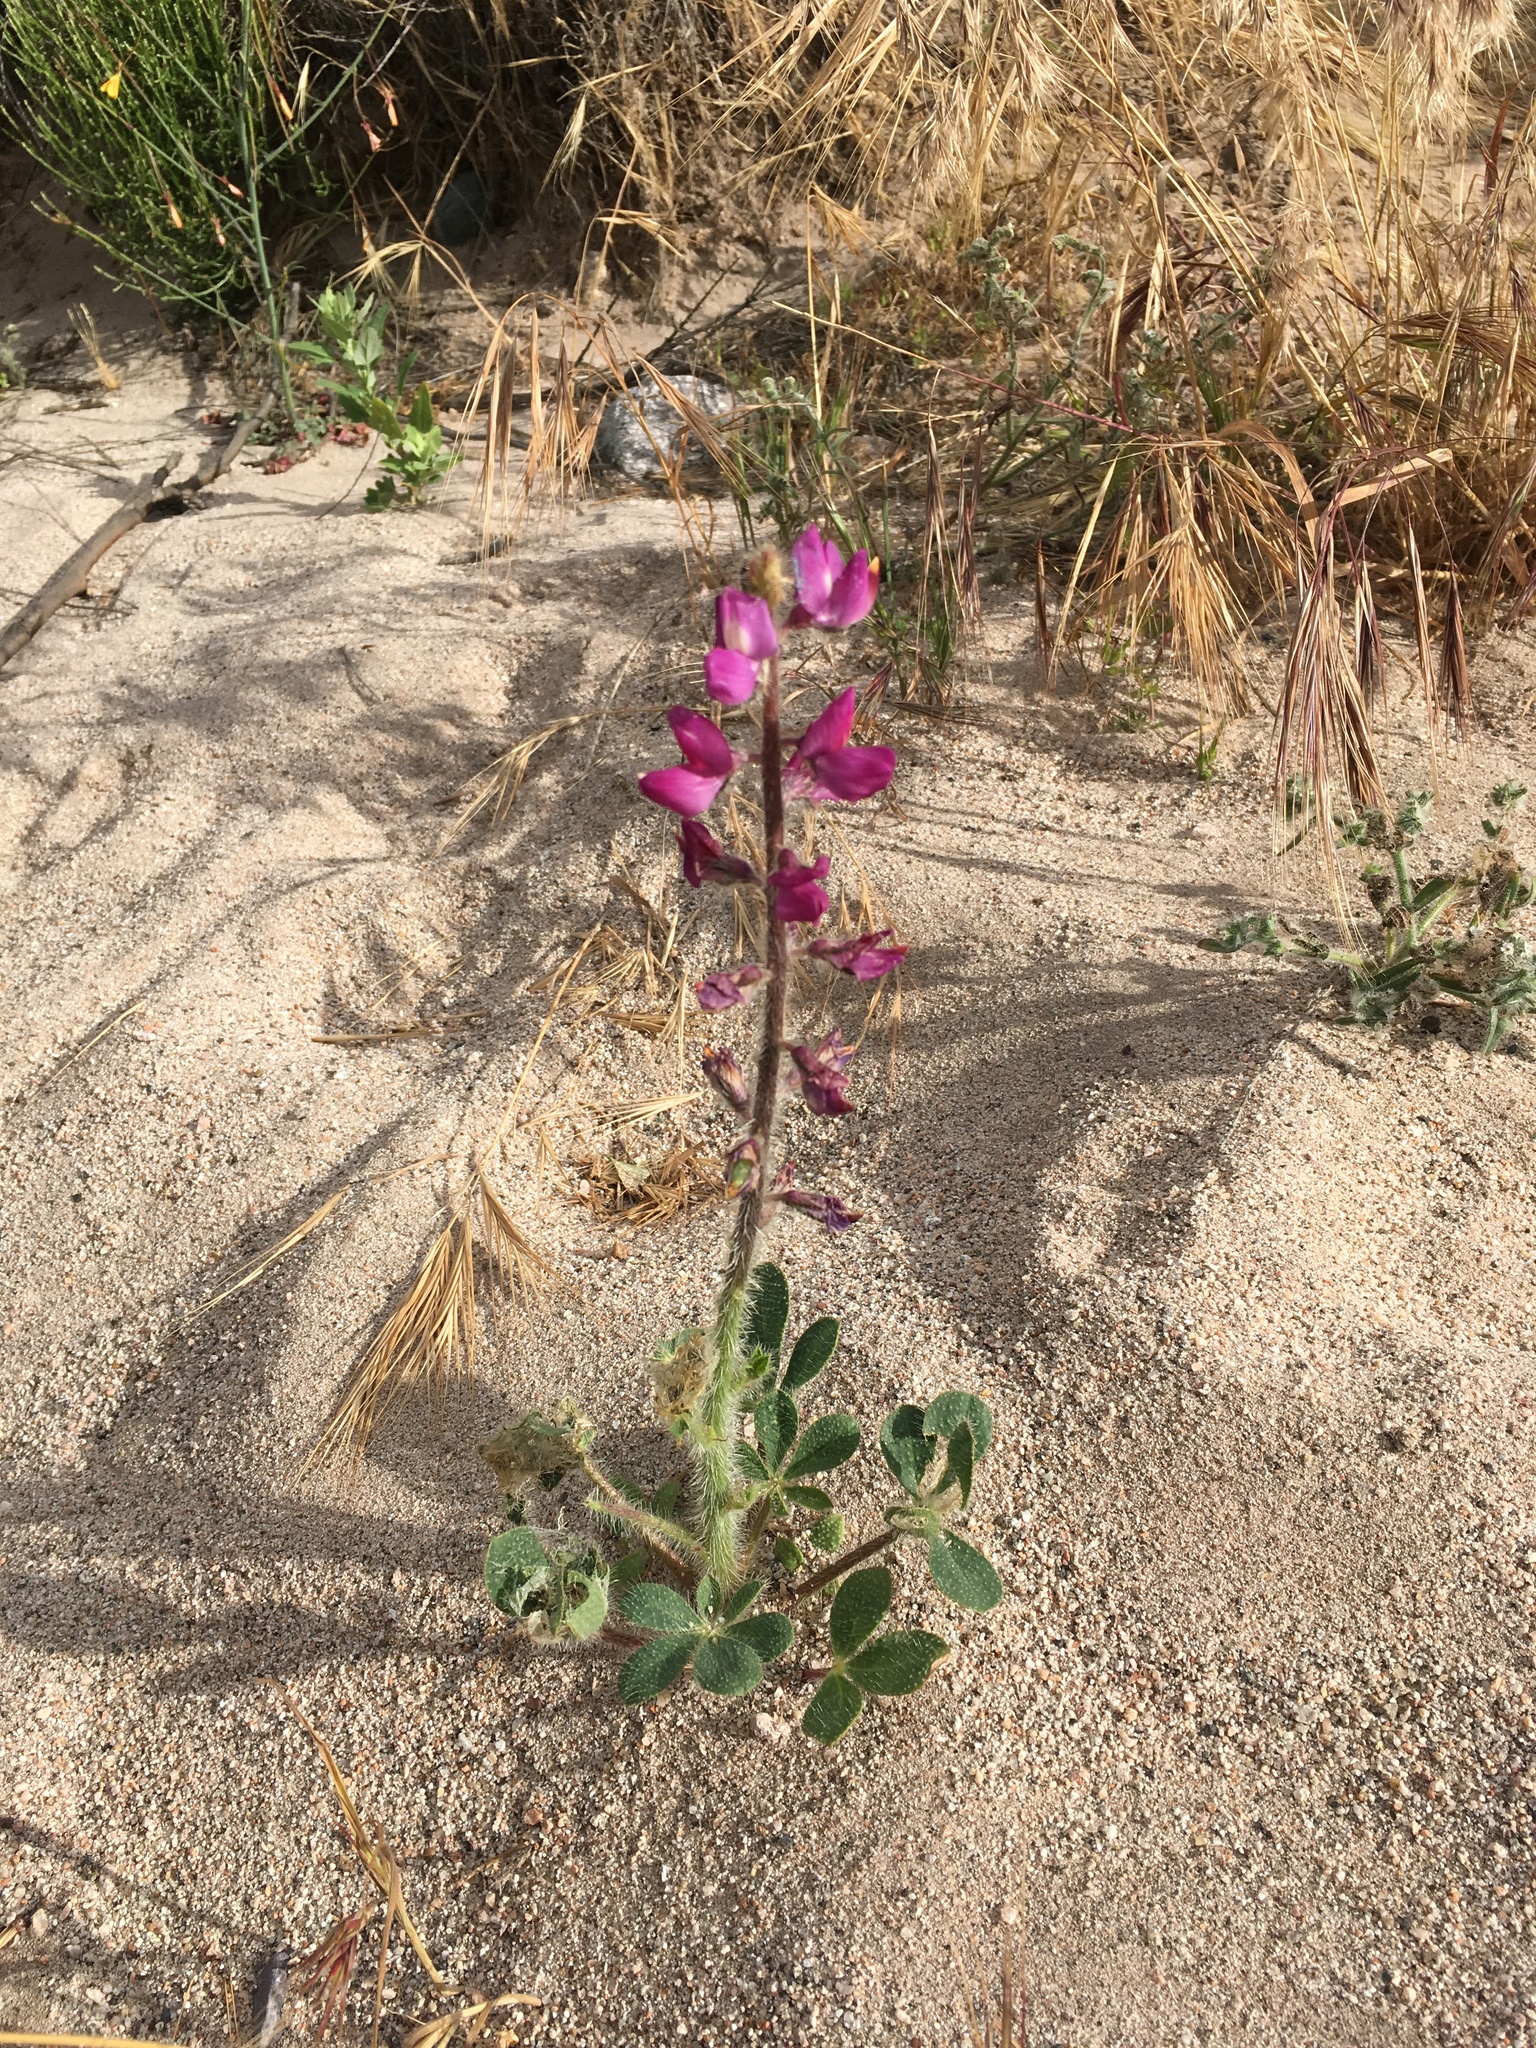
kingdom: Plantae
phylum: Tracheophyta
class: Magnoliopsida
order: Fabales
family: Fabaceae
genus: Lupinus
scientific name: Lupinus hirsutissimus
